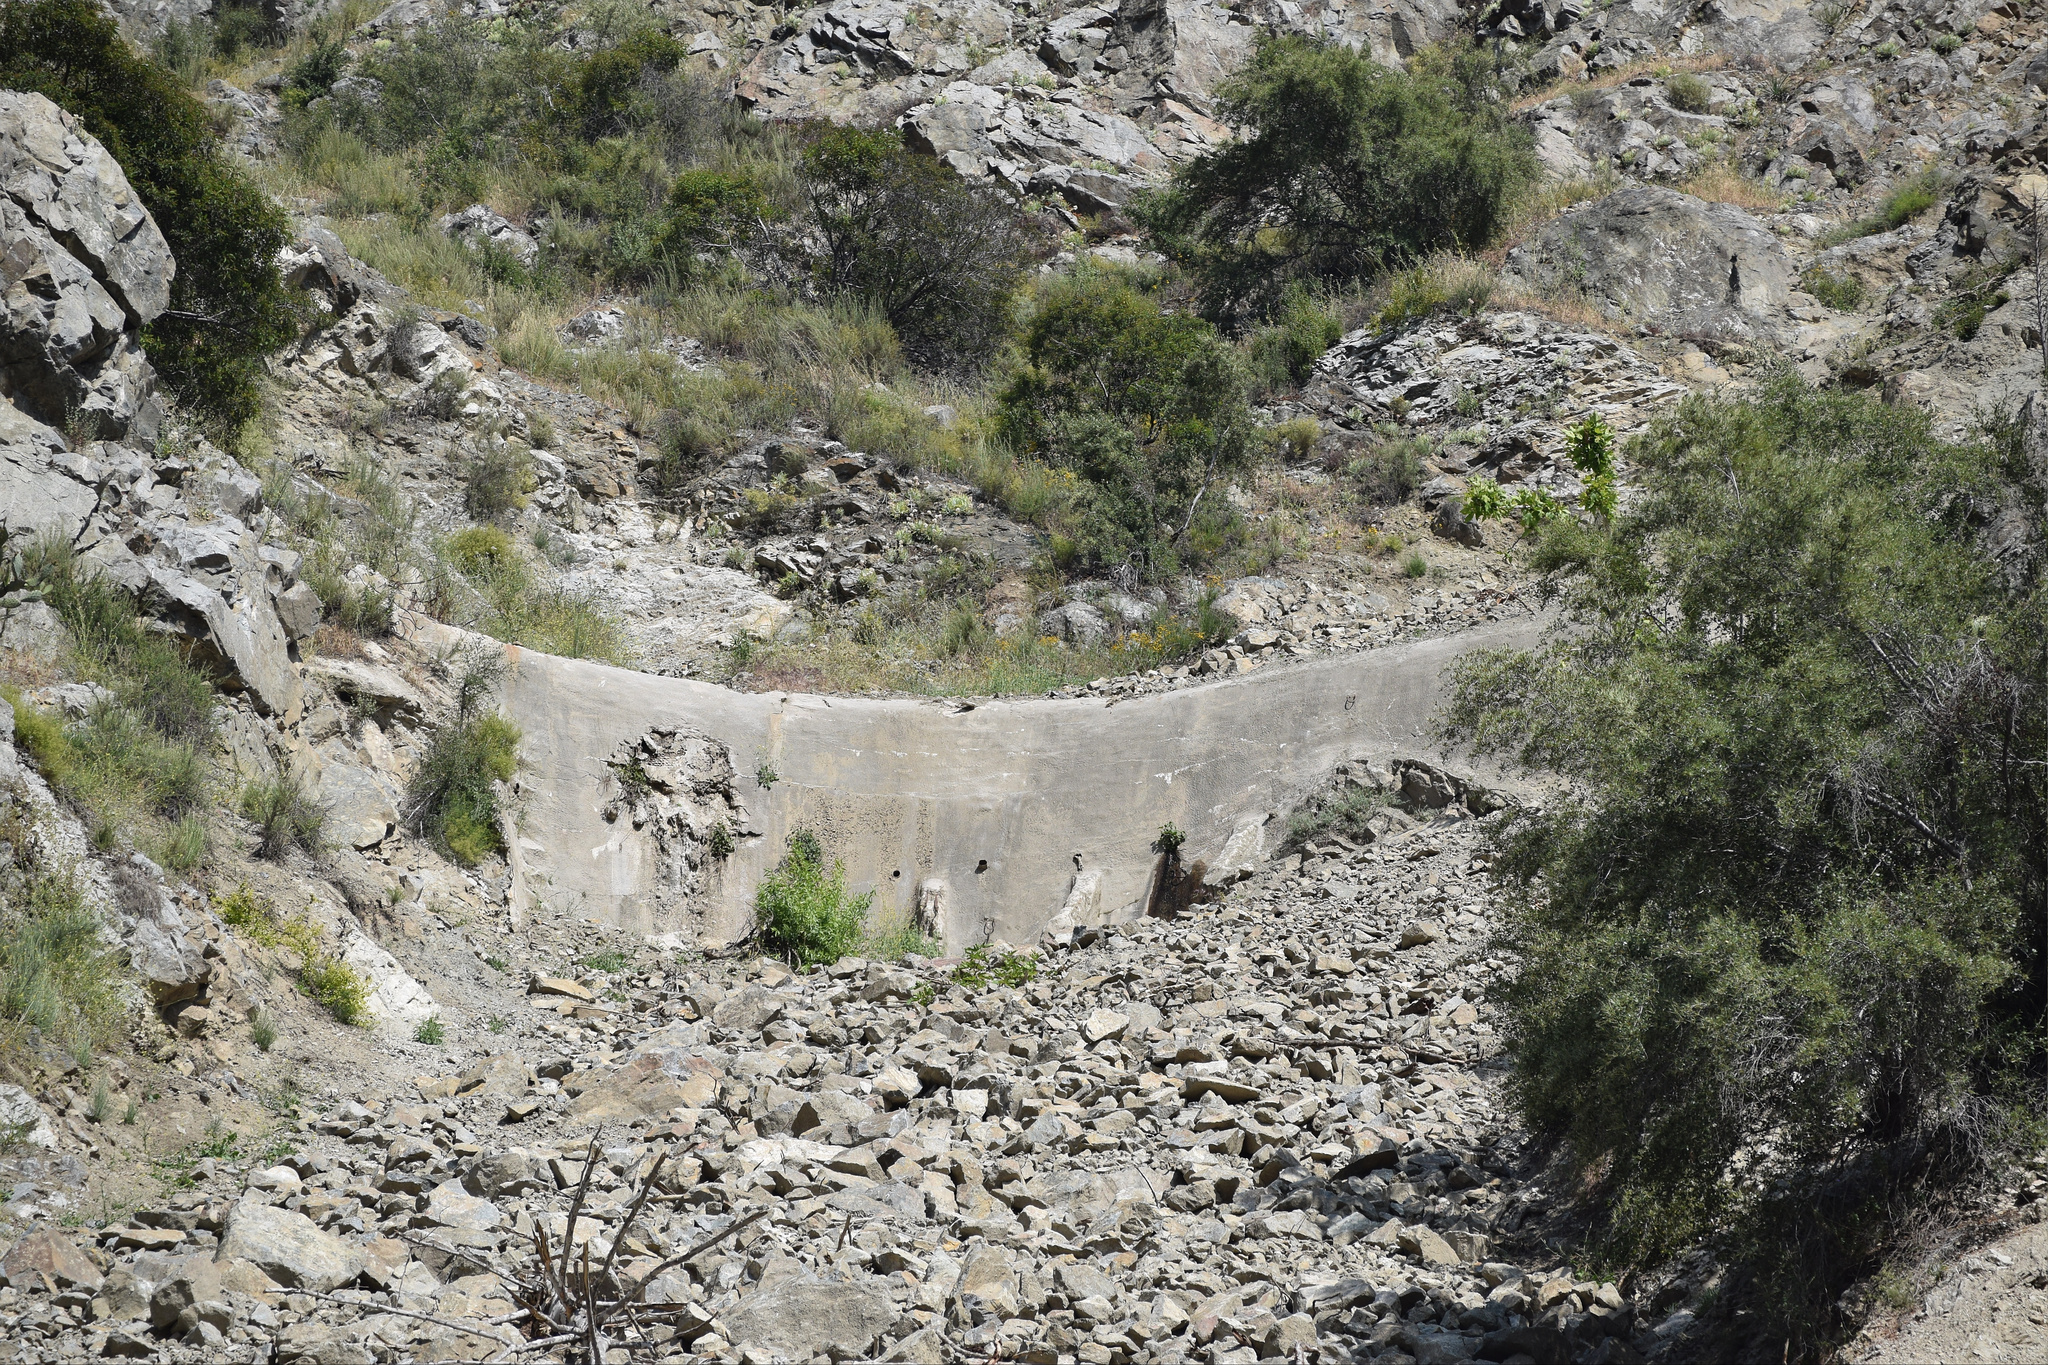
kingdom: Plantae
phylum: Tracheophyta
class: Magnoliopsida
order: Saxifragales
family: Crassulaceae
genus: Dudleya
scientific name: Dudleya densiflora
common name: San gabriel mountains dudleya
